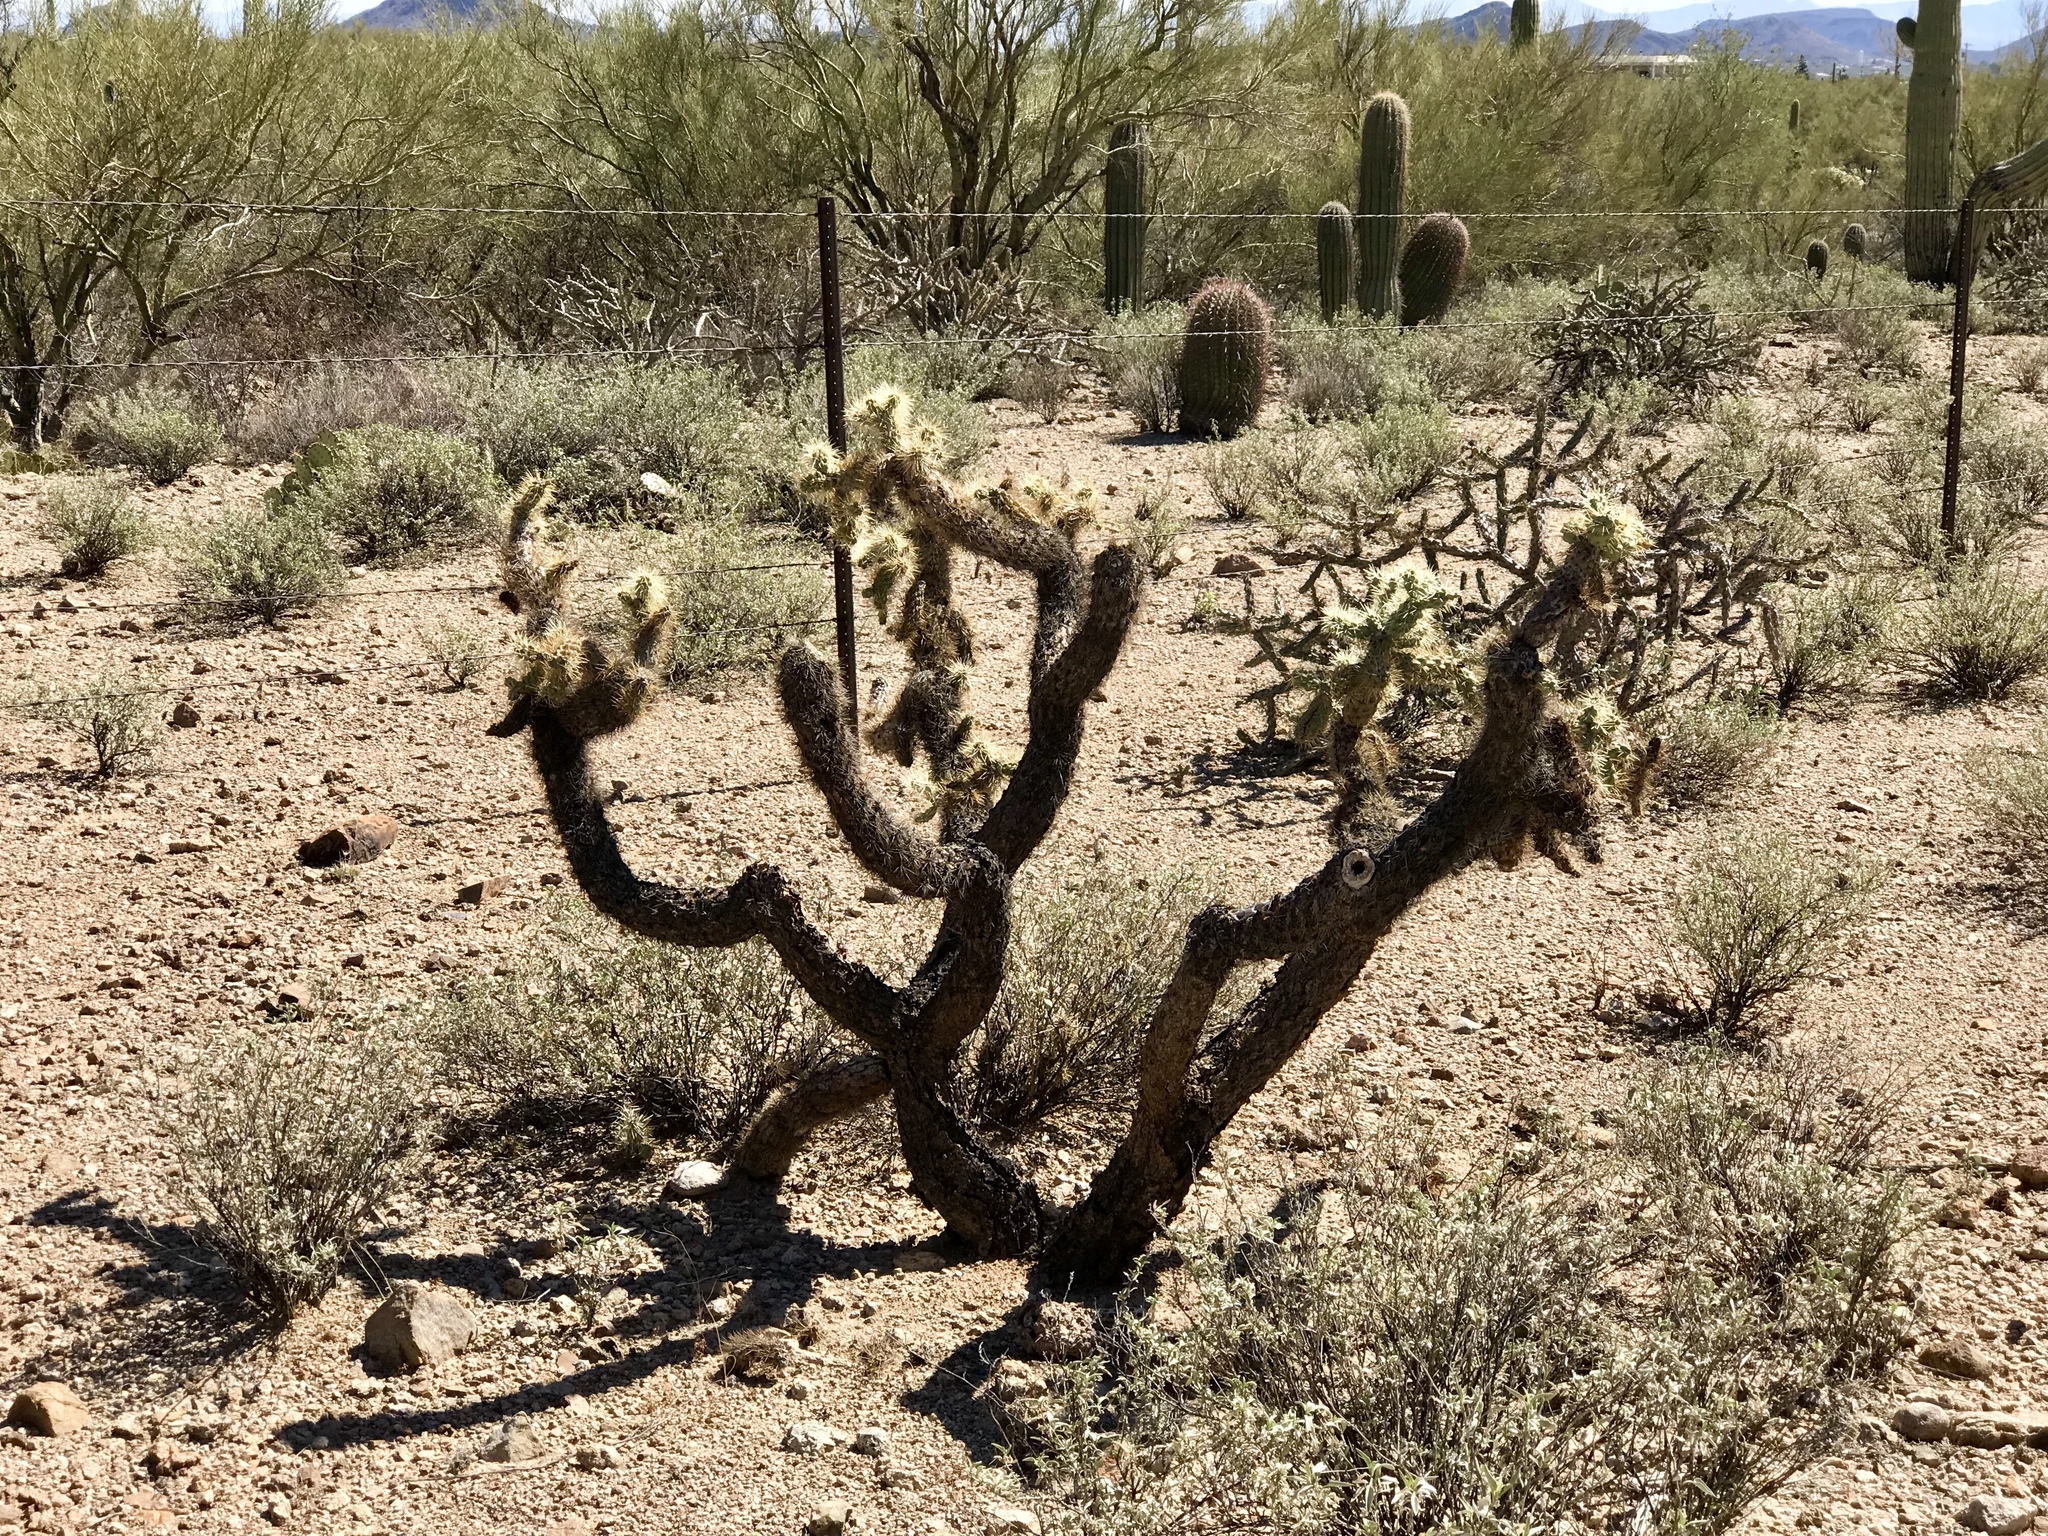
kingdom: Plantae
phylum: Tracheophyta
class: Magnoliopsida
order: Caryophyllales
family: Cactaceae
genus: Cylindropuntia
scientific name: Cylindropuntia fulgida
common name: Jumping cholla
